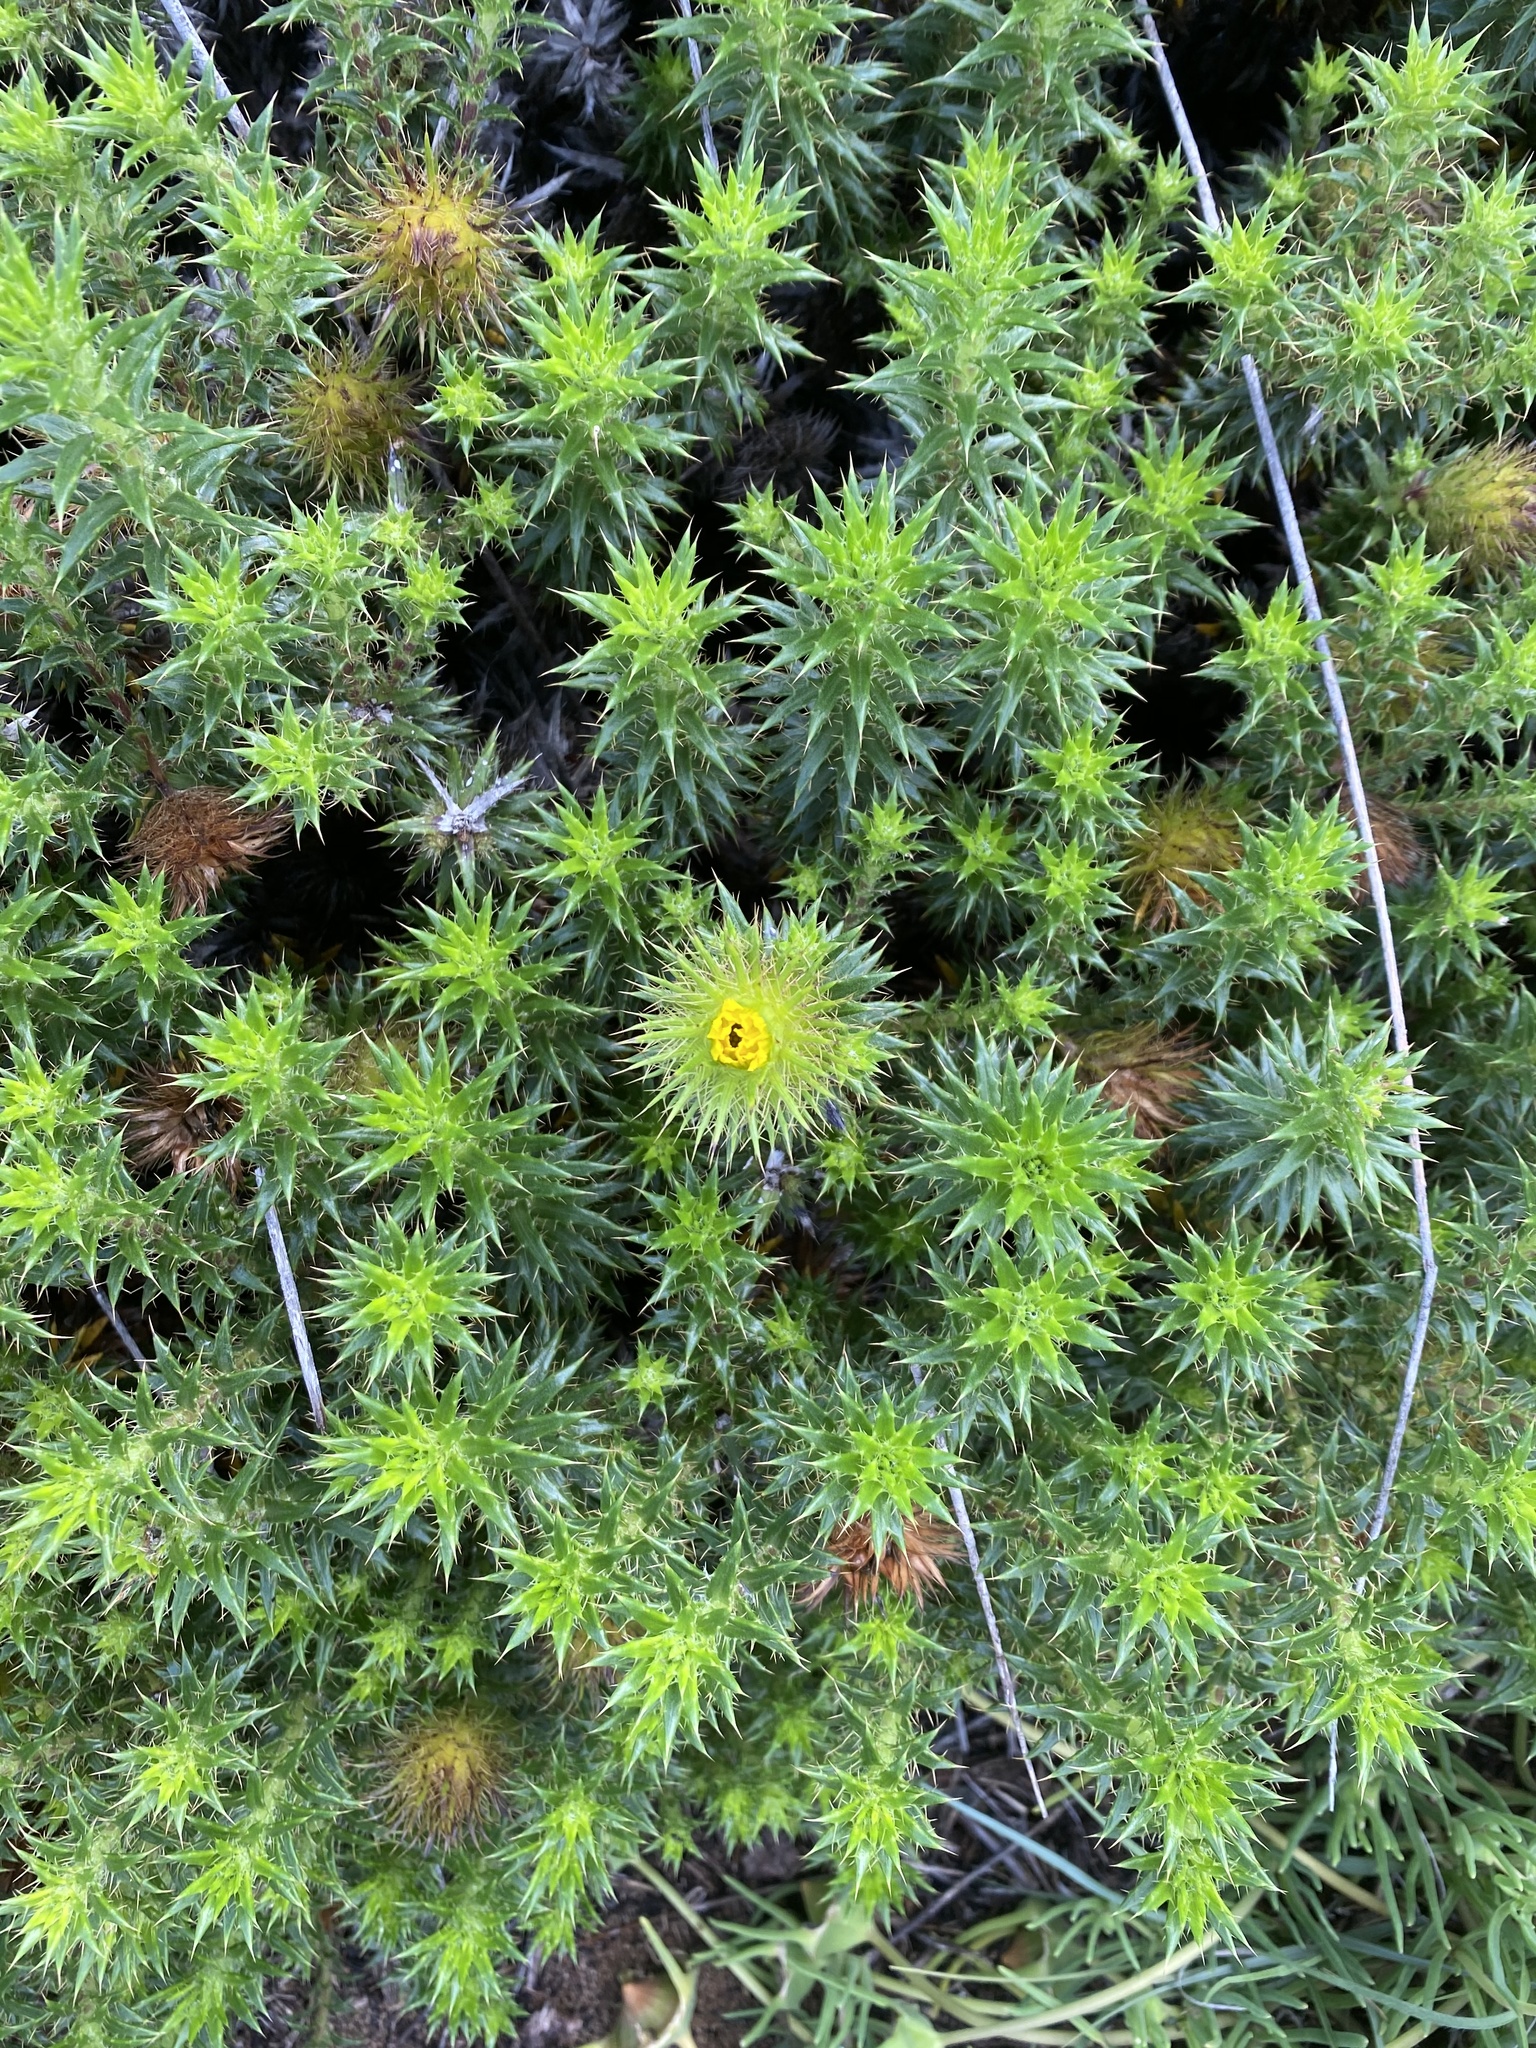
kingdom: Plantae
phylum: Tracheophyta
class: Magnoliopsida
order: Asterales
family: Asteraceae
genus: Cullumia
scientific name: Cullumia carlinoides
